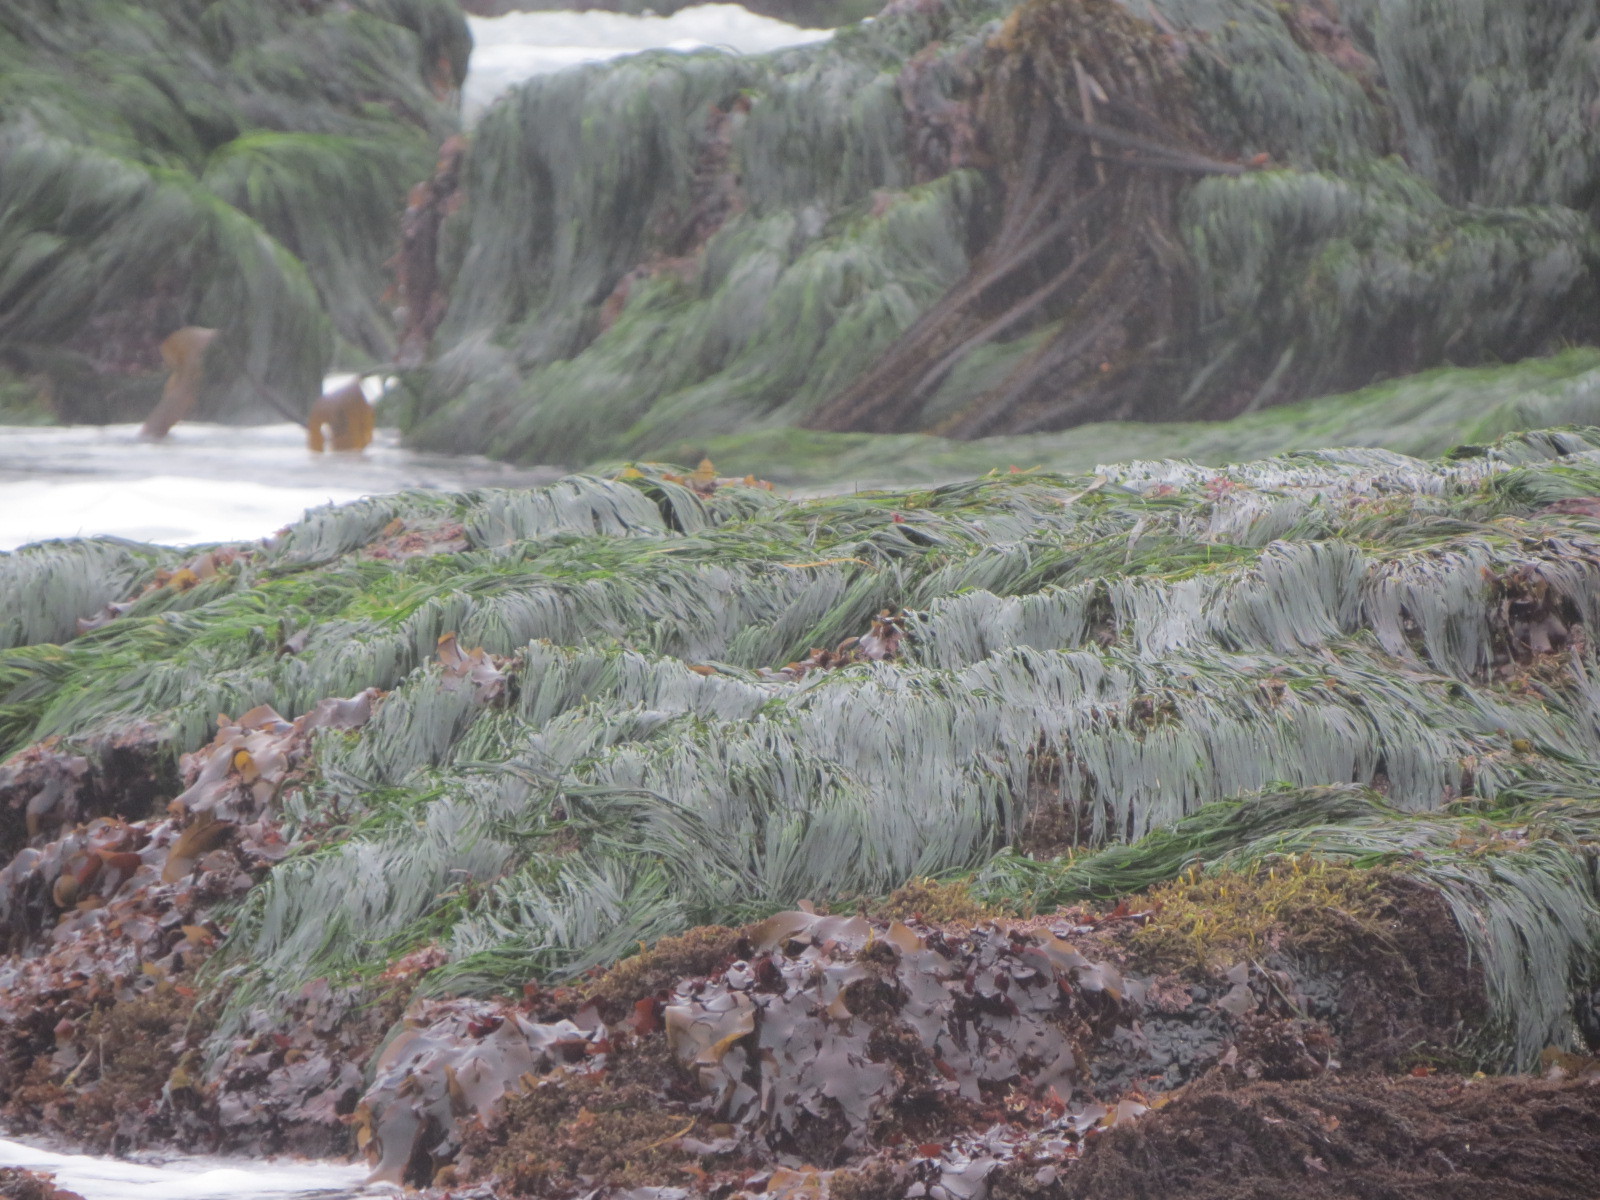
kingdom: Plantae
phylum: Tracheophyta
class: Liliopsida
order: Alismatales
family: Zosteraceae
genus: Phyllospadix
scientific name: Phyllospadix scouleri
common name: Species code: ps
